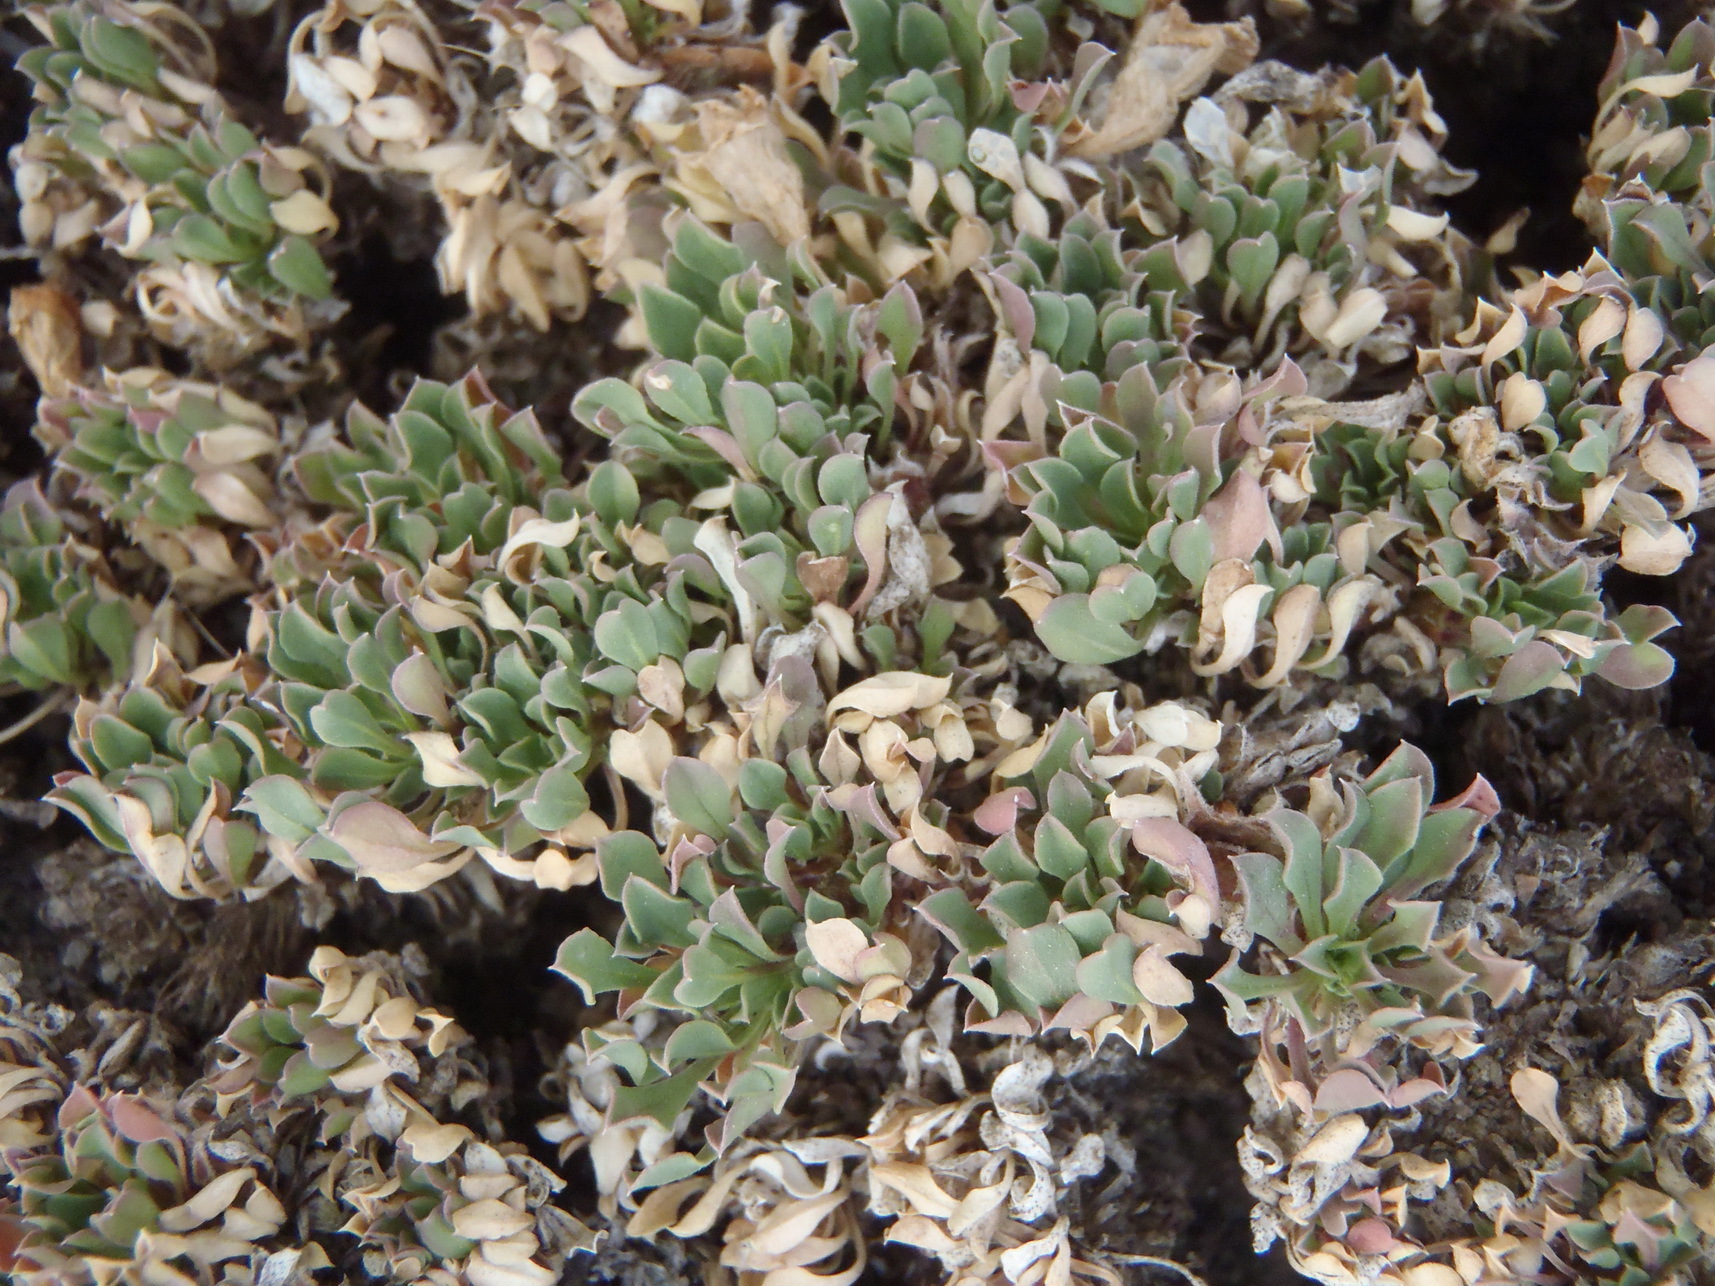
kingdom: Plantae
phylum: Tracheophyta
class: Magnoliopsida
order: Lamiales
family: Scrophulariaceae
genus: Aptosimum
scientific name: Aptosimum procumbens
